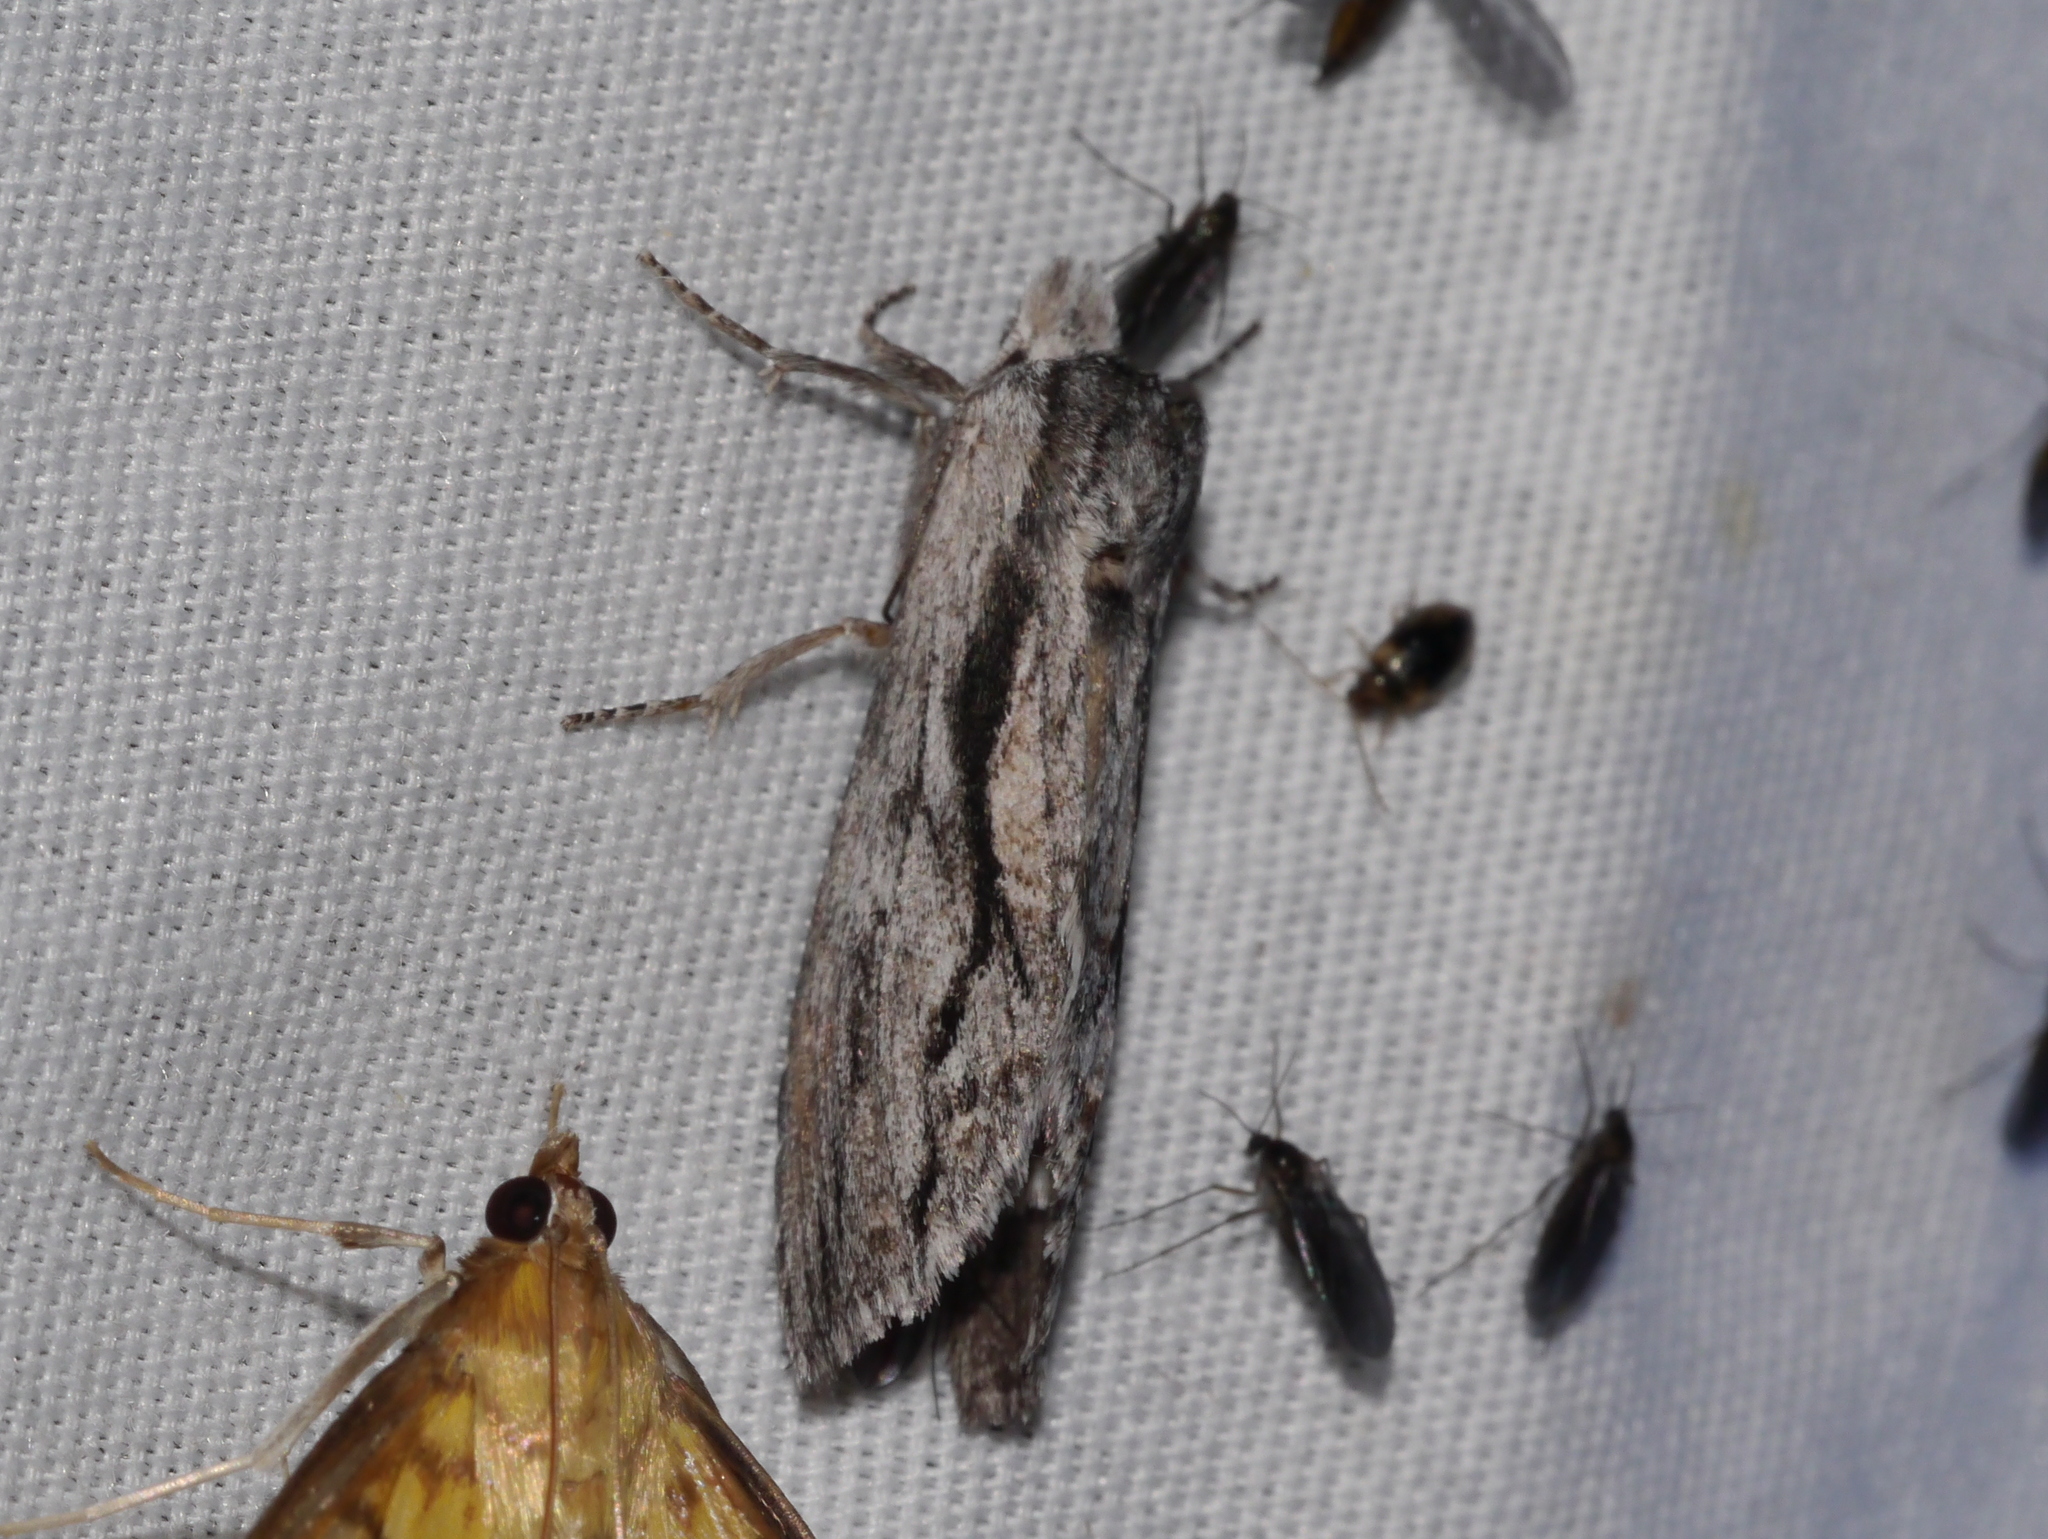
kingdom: Animalia
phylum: Arthropoda
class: Insecta
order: Lepidoptera
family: Notodontidae
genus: Notela
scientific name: Notela jaliscana
